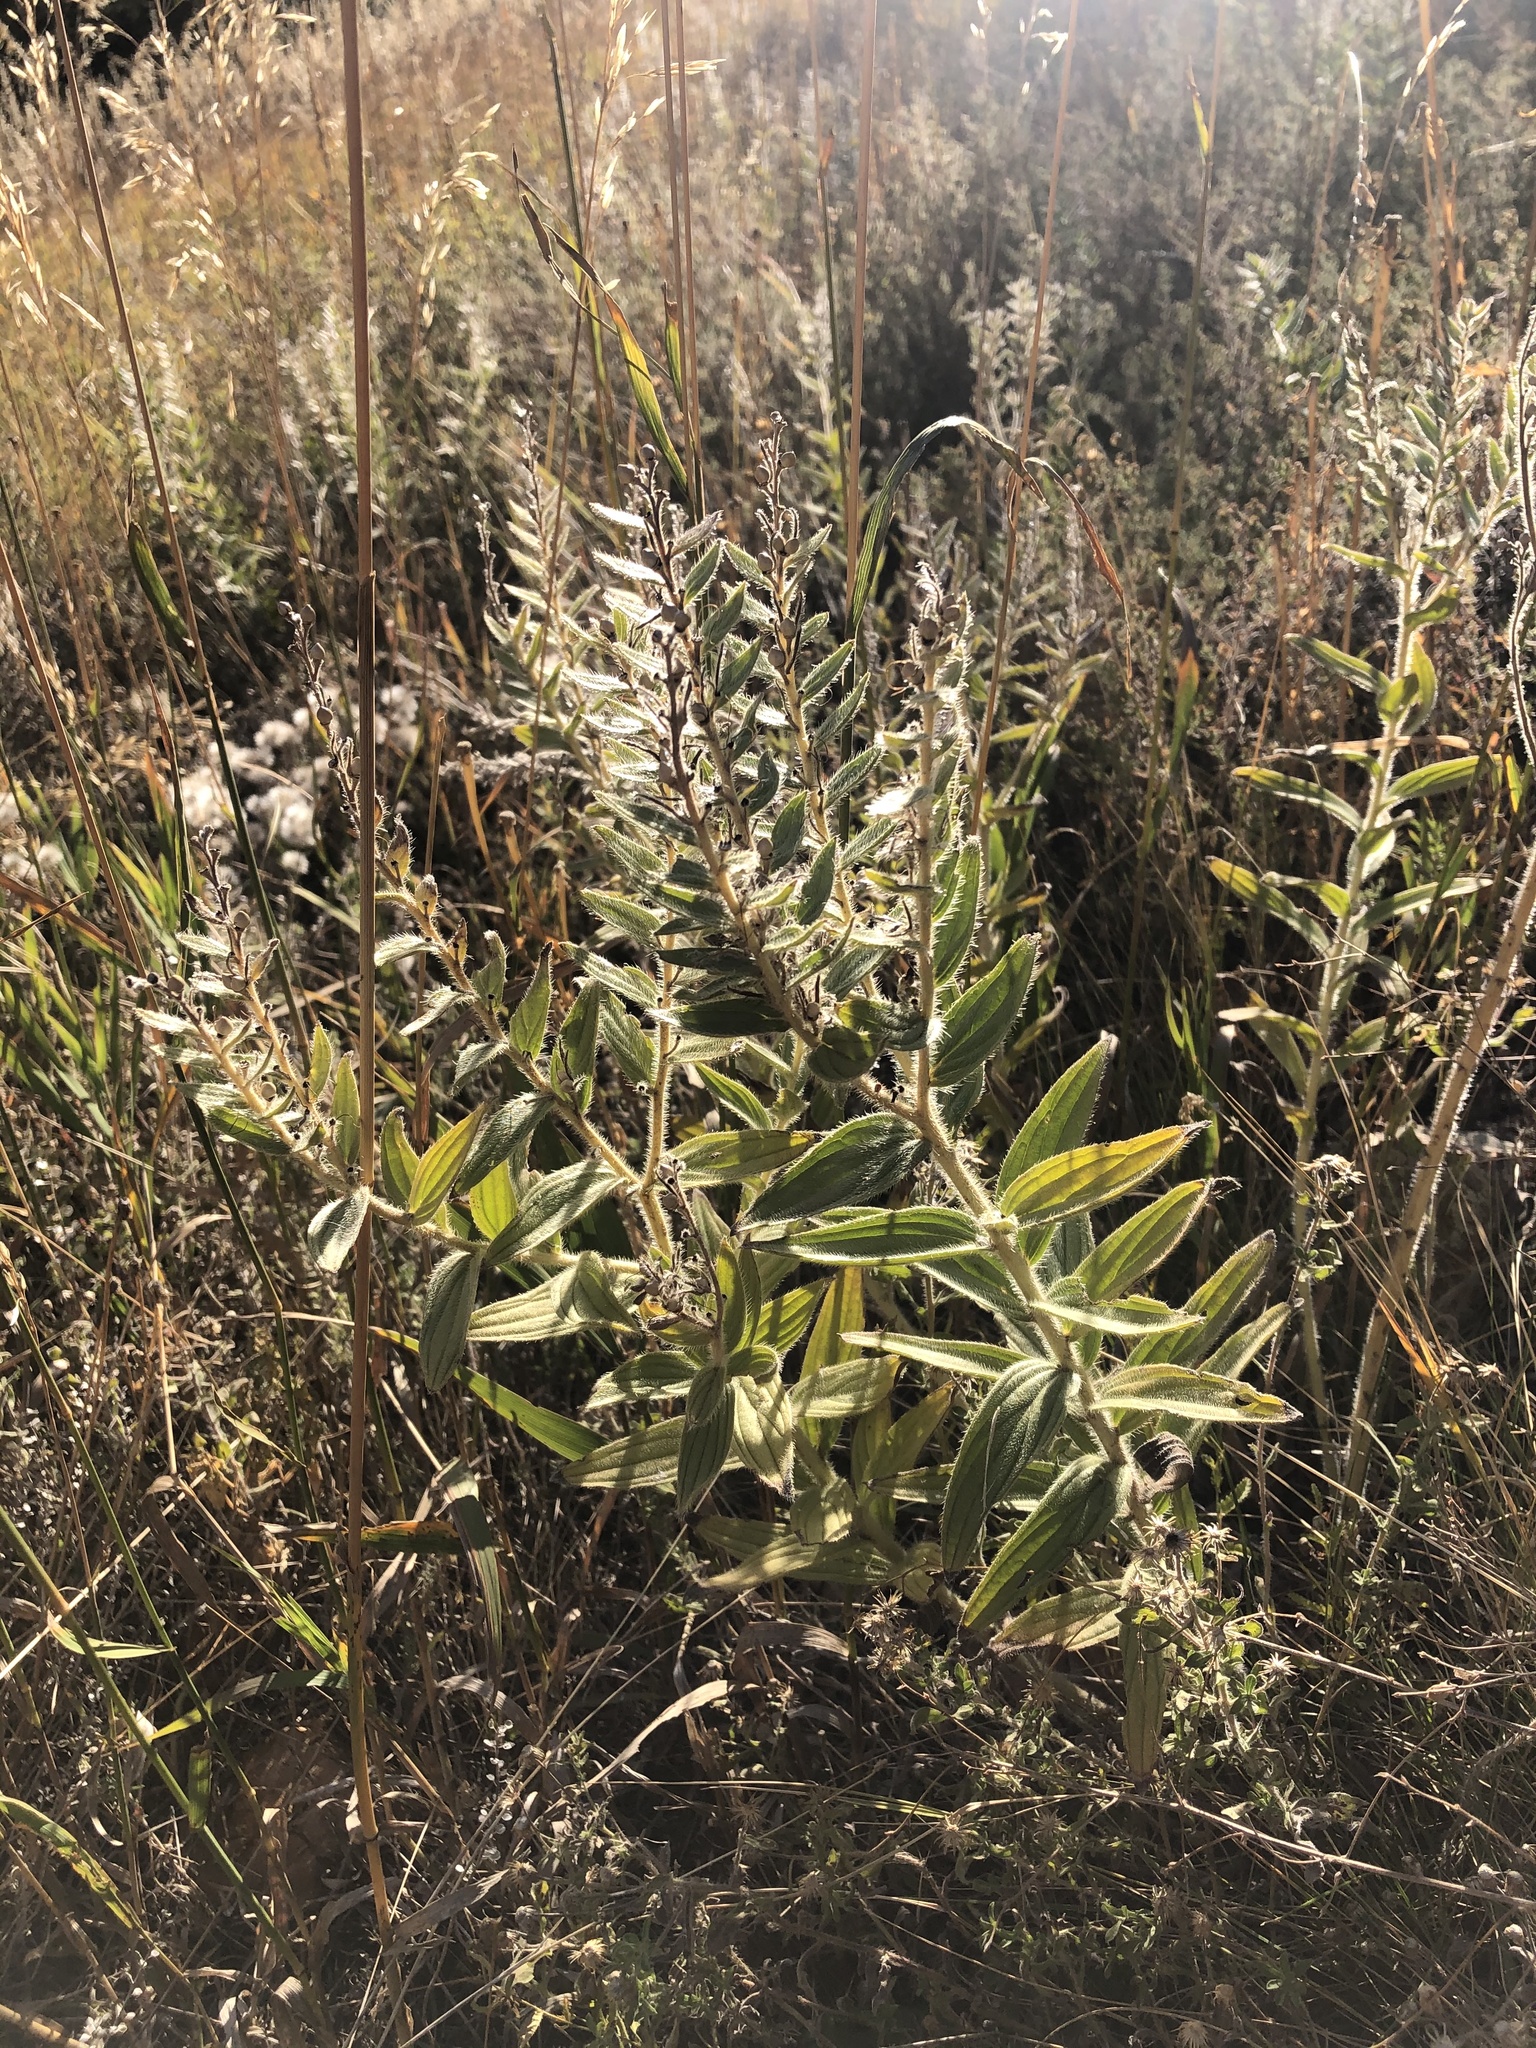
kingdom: Plantae
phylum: Tracheophyta
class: Magnoliopsida
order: Boraginales
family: Boraginaceae
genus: Lithospermum
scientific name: Lithospermum occidentale
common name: Western false gromwell
